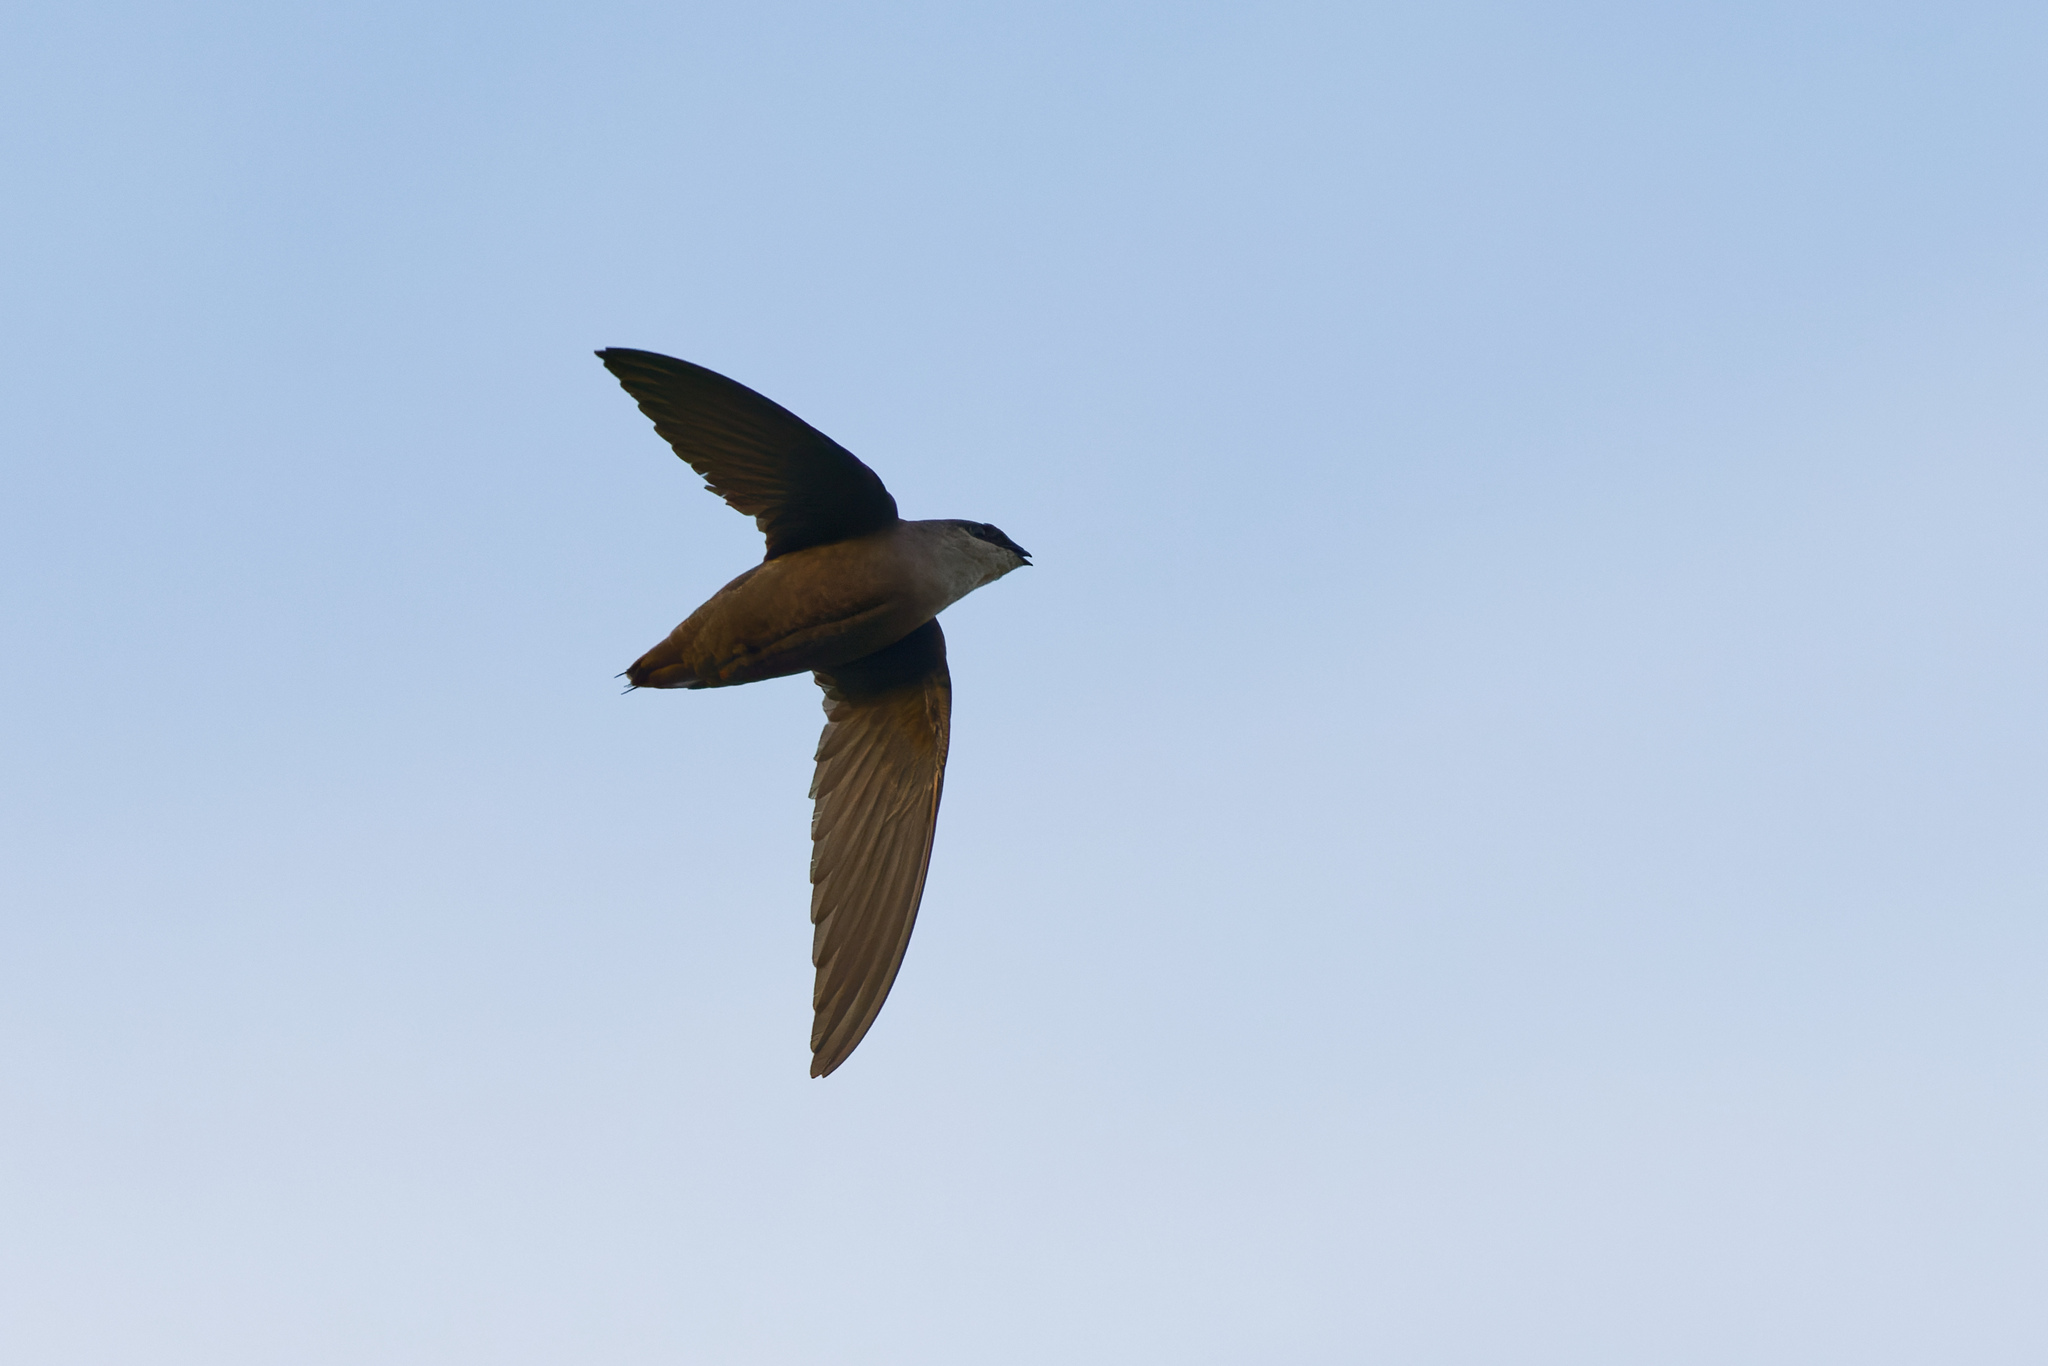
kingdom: Animalia
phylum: Chordata
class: Aves
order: Apodiformes
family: Apodidae
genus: Chaetura
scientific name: Chaetura pelagica
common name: Chimney swift
